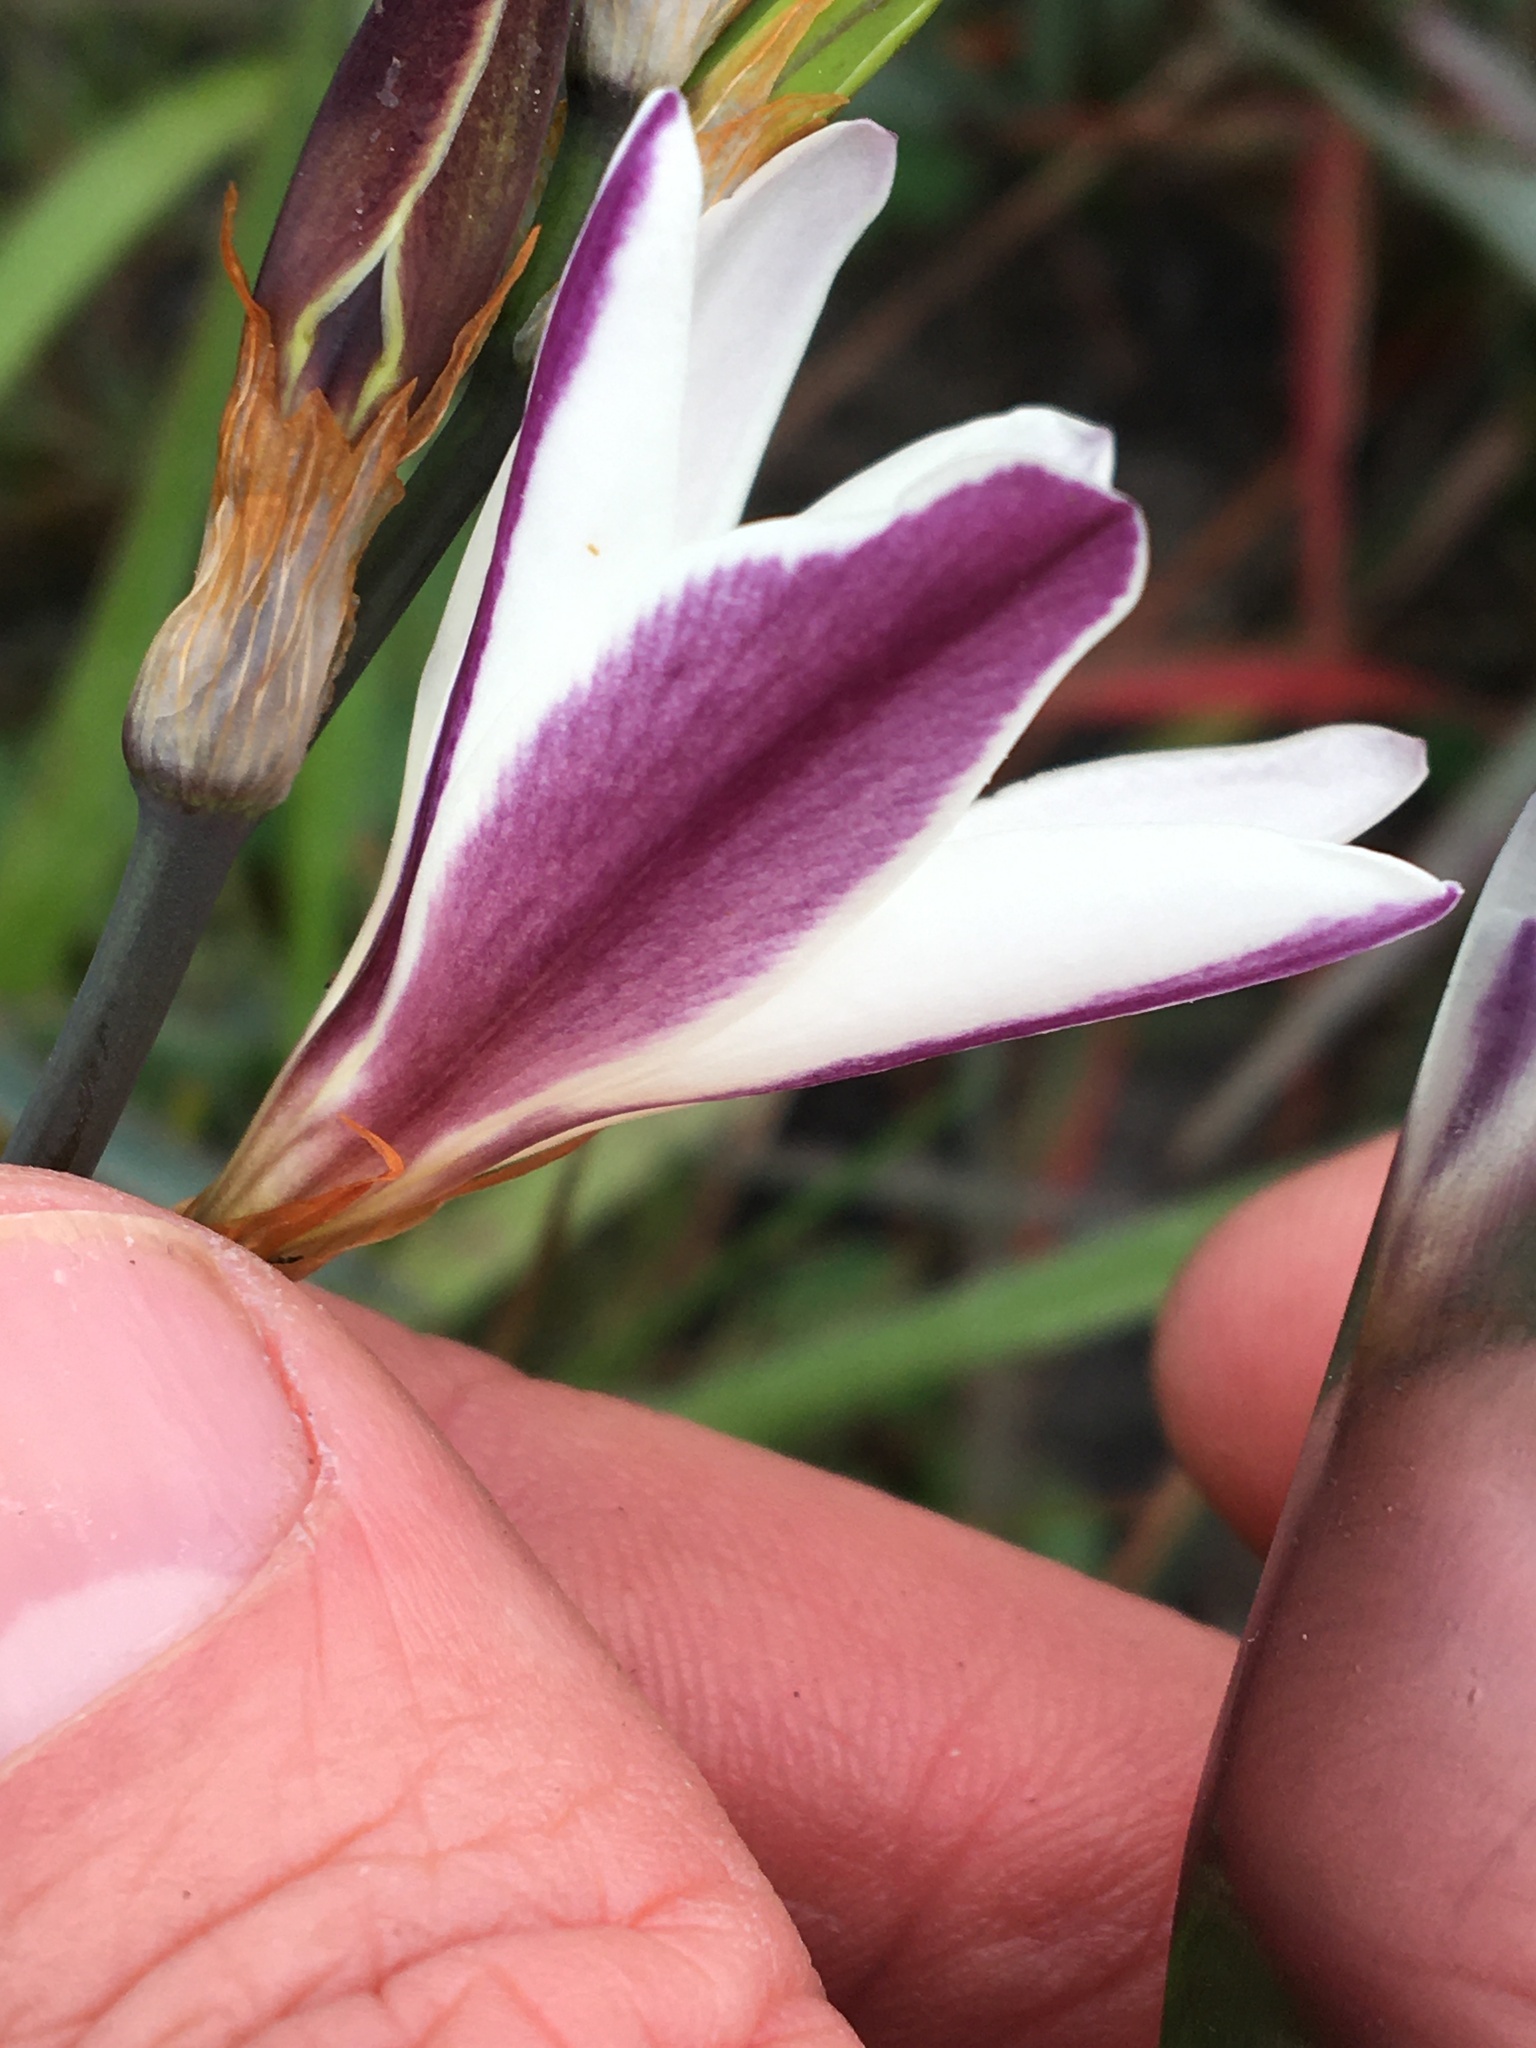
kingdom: Plantae
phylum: Tracheophyta
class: Liliopsida
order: Asparagales
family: Iridaceae
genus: Sparaxis
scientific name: Sparaxis bulbifera
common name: Harlequin-flower
